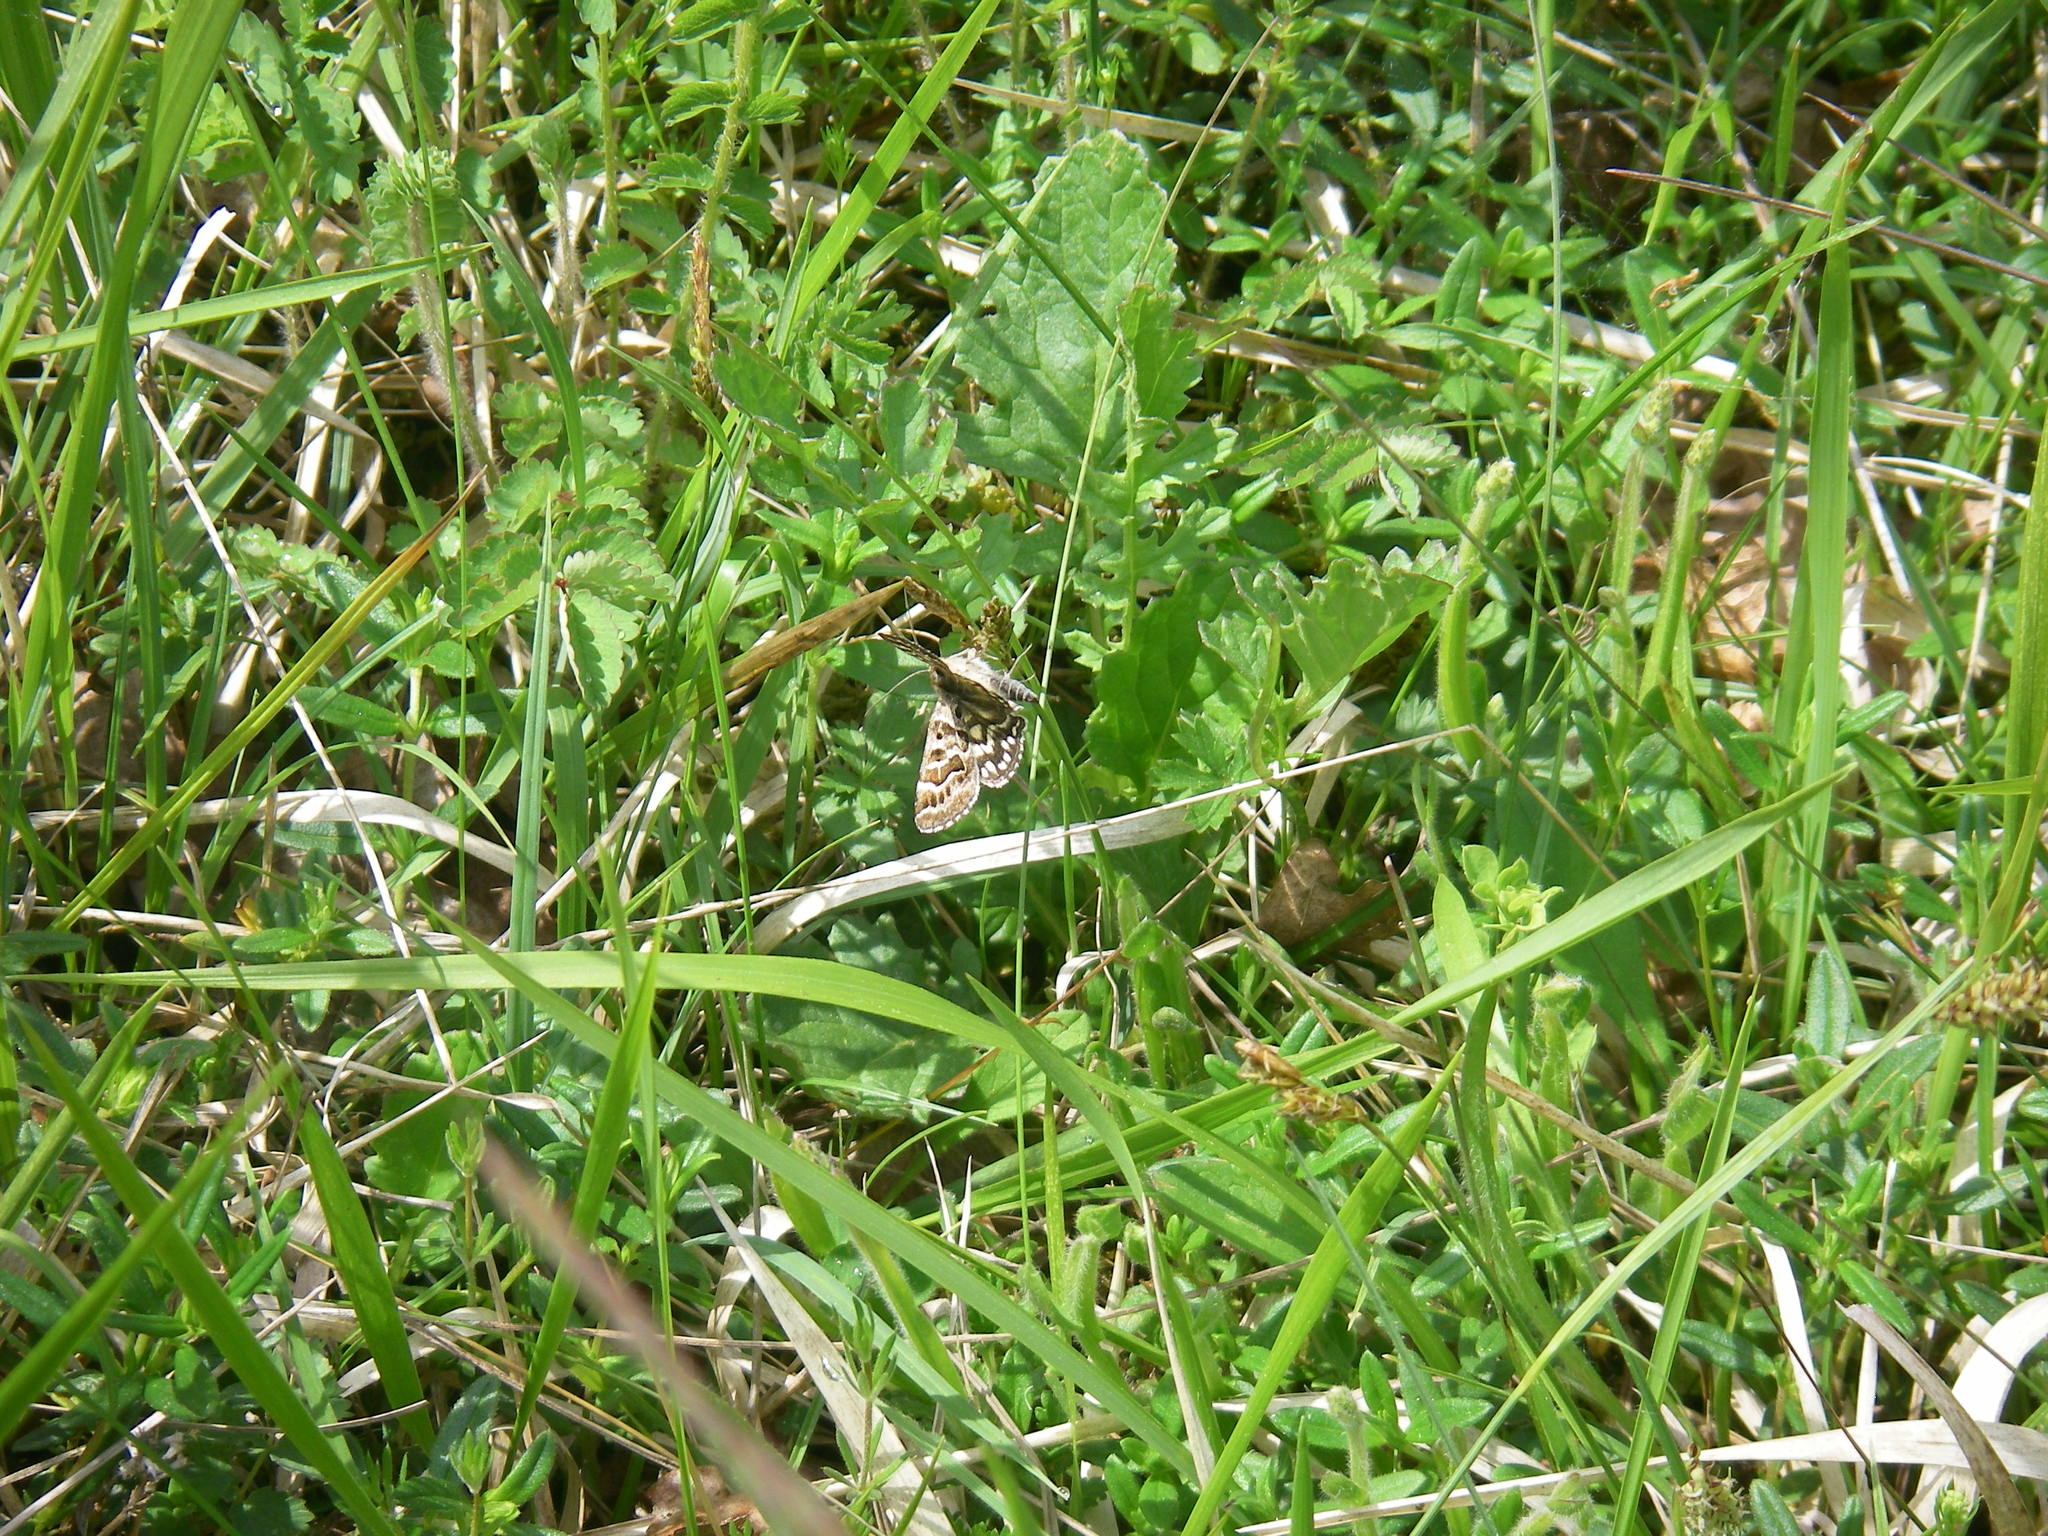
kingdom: Animalia
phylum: Arthropoda
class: Insecta
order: Lepidoptera
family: Erebidae
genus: Callistege
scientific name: Callistege mi
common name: Mother shipton
